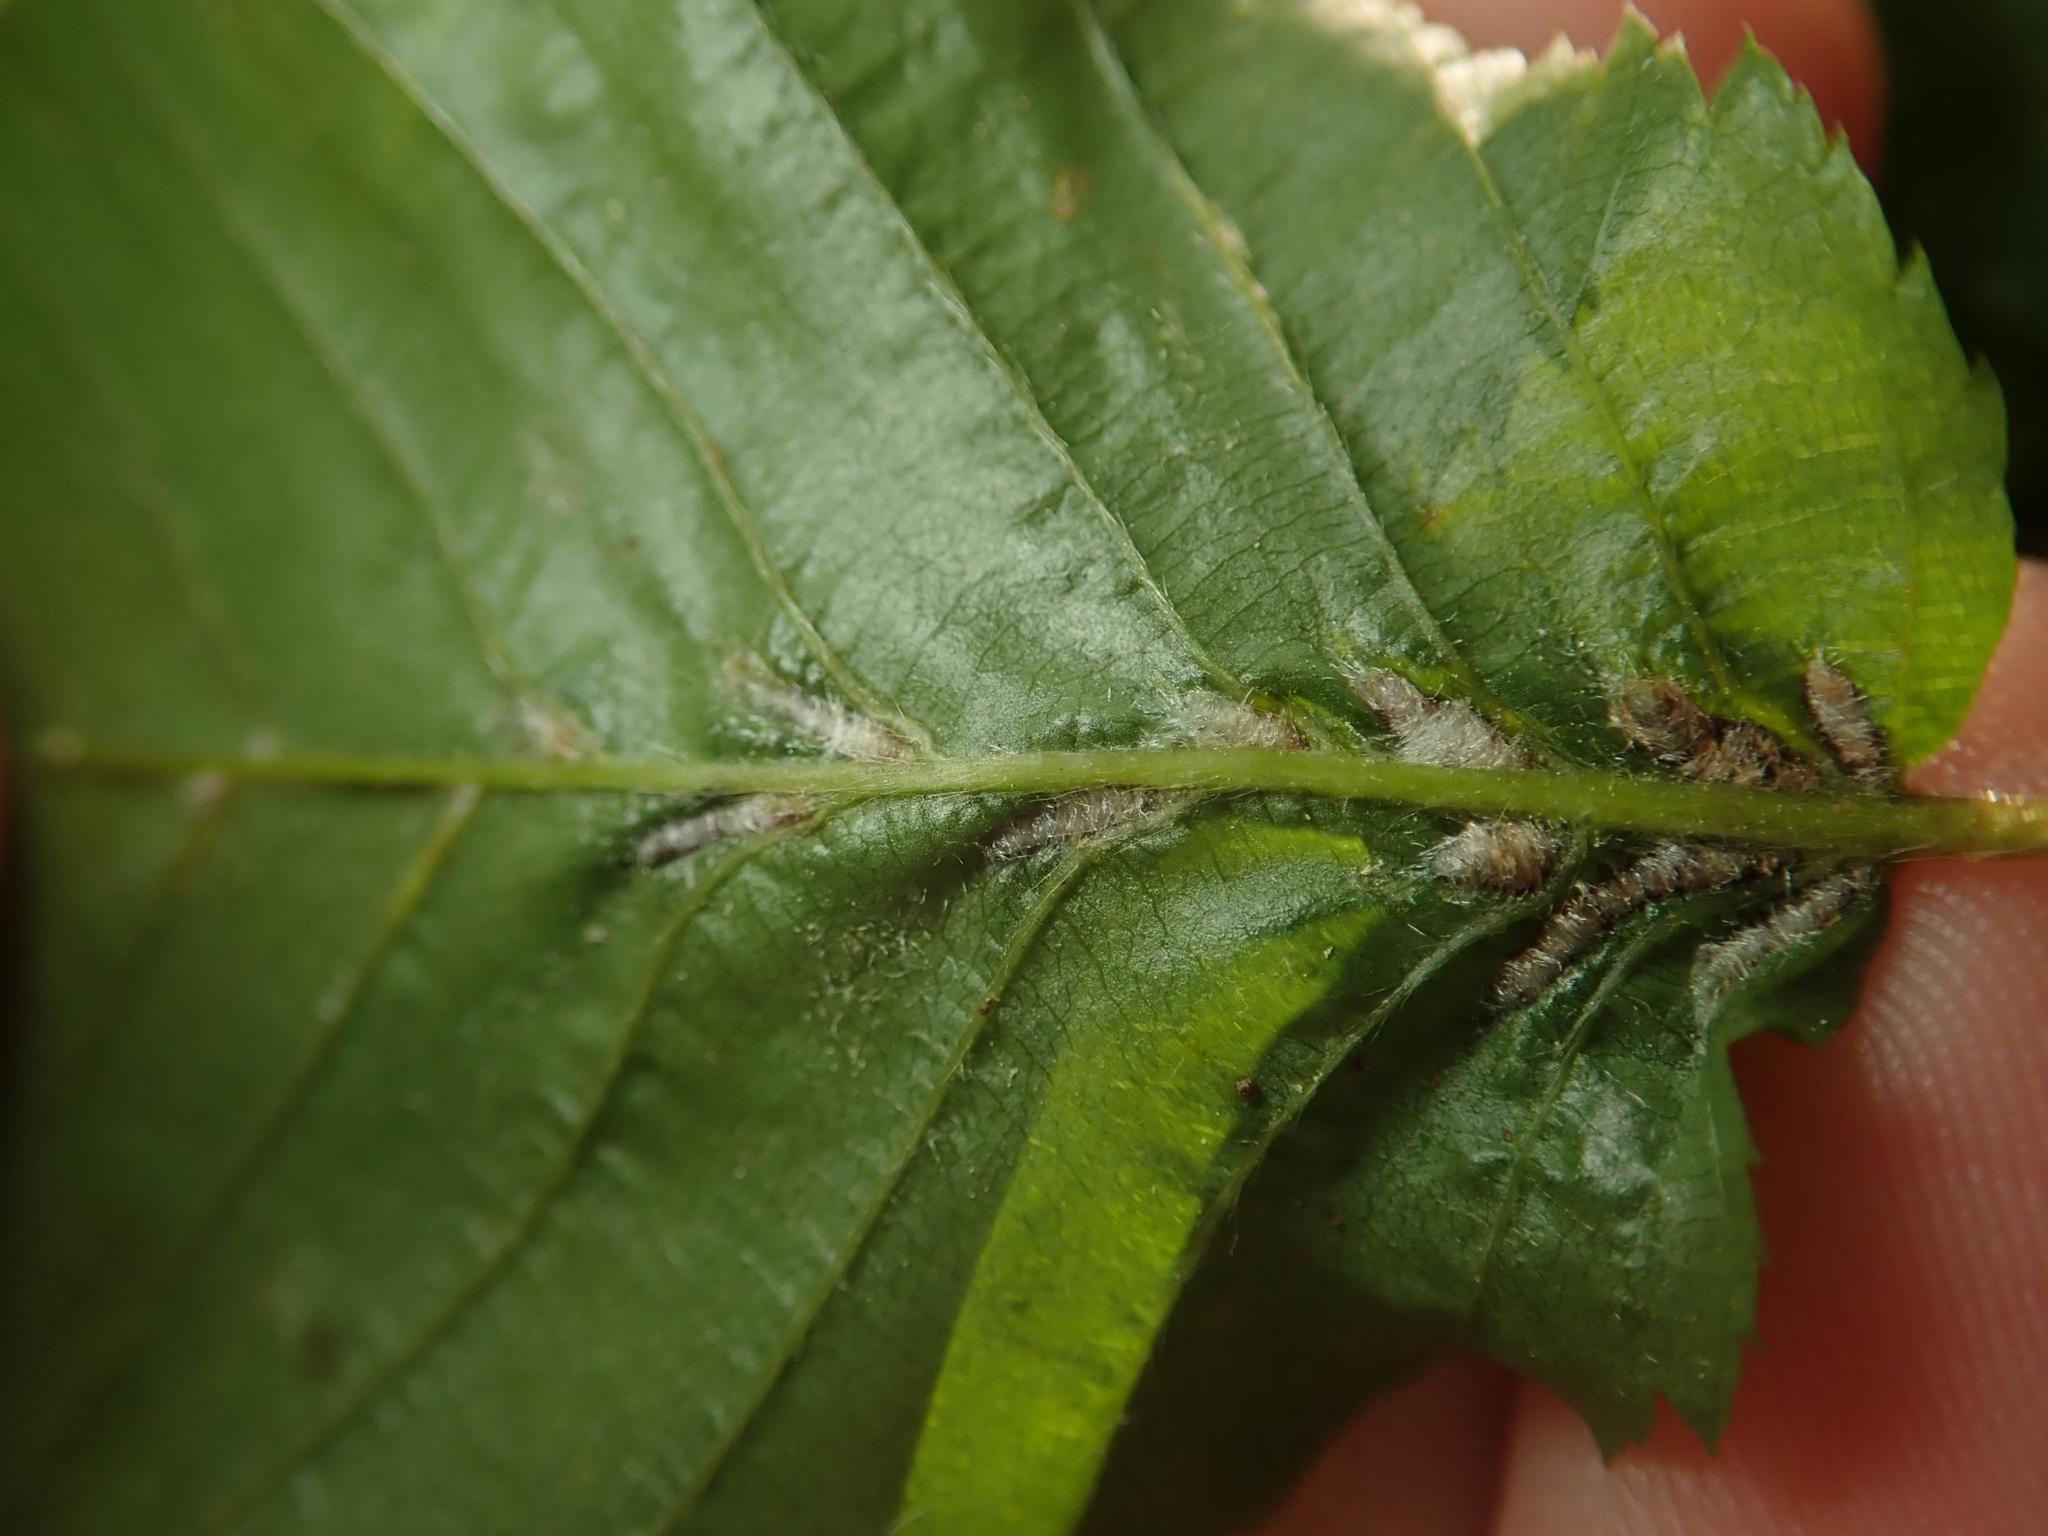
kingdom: Animalia
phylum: Arthropoda
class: Arachnida
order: Trombidiformes
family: Eriophyidae
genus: Aceria
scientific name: Aceria tenellus
